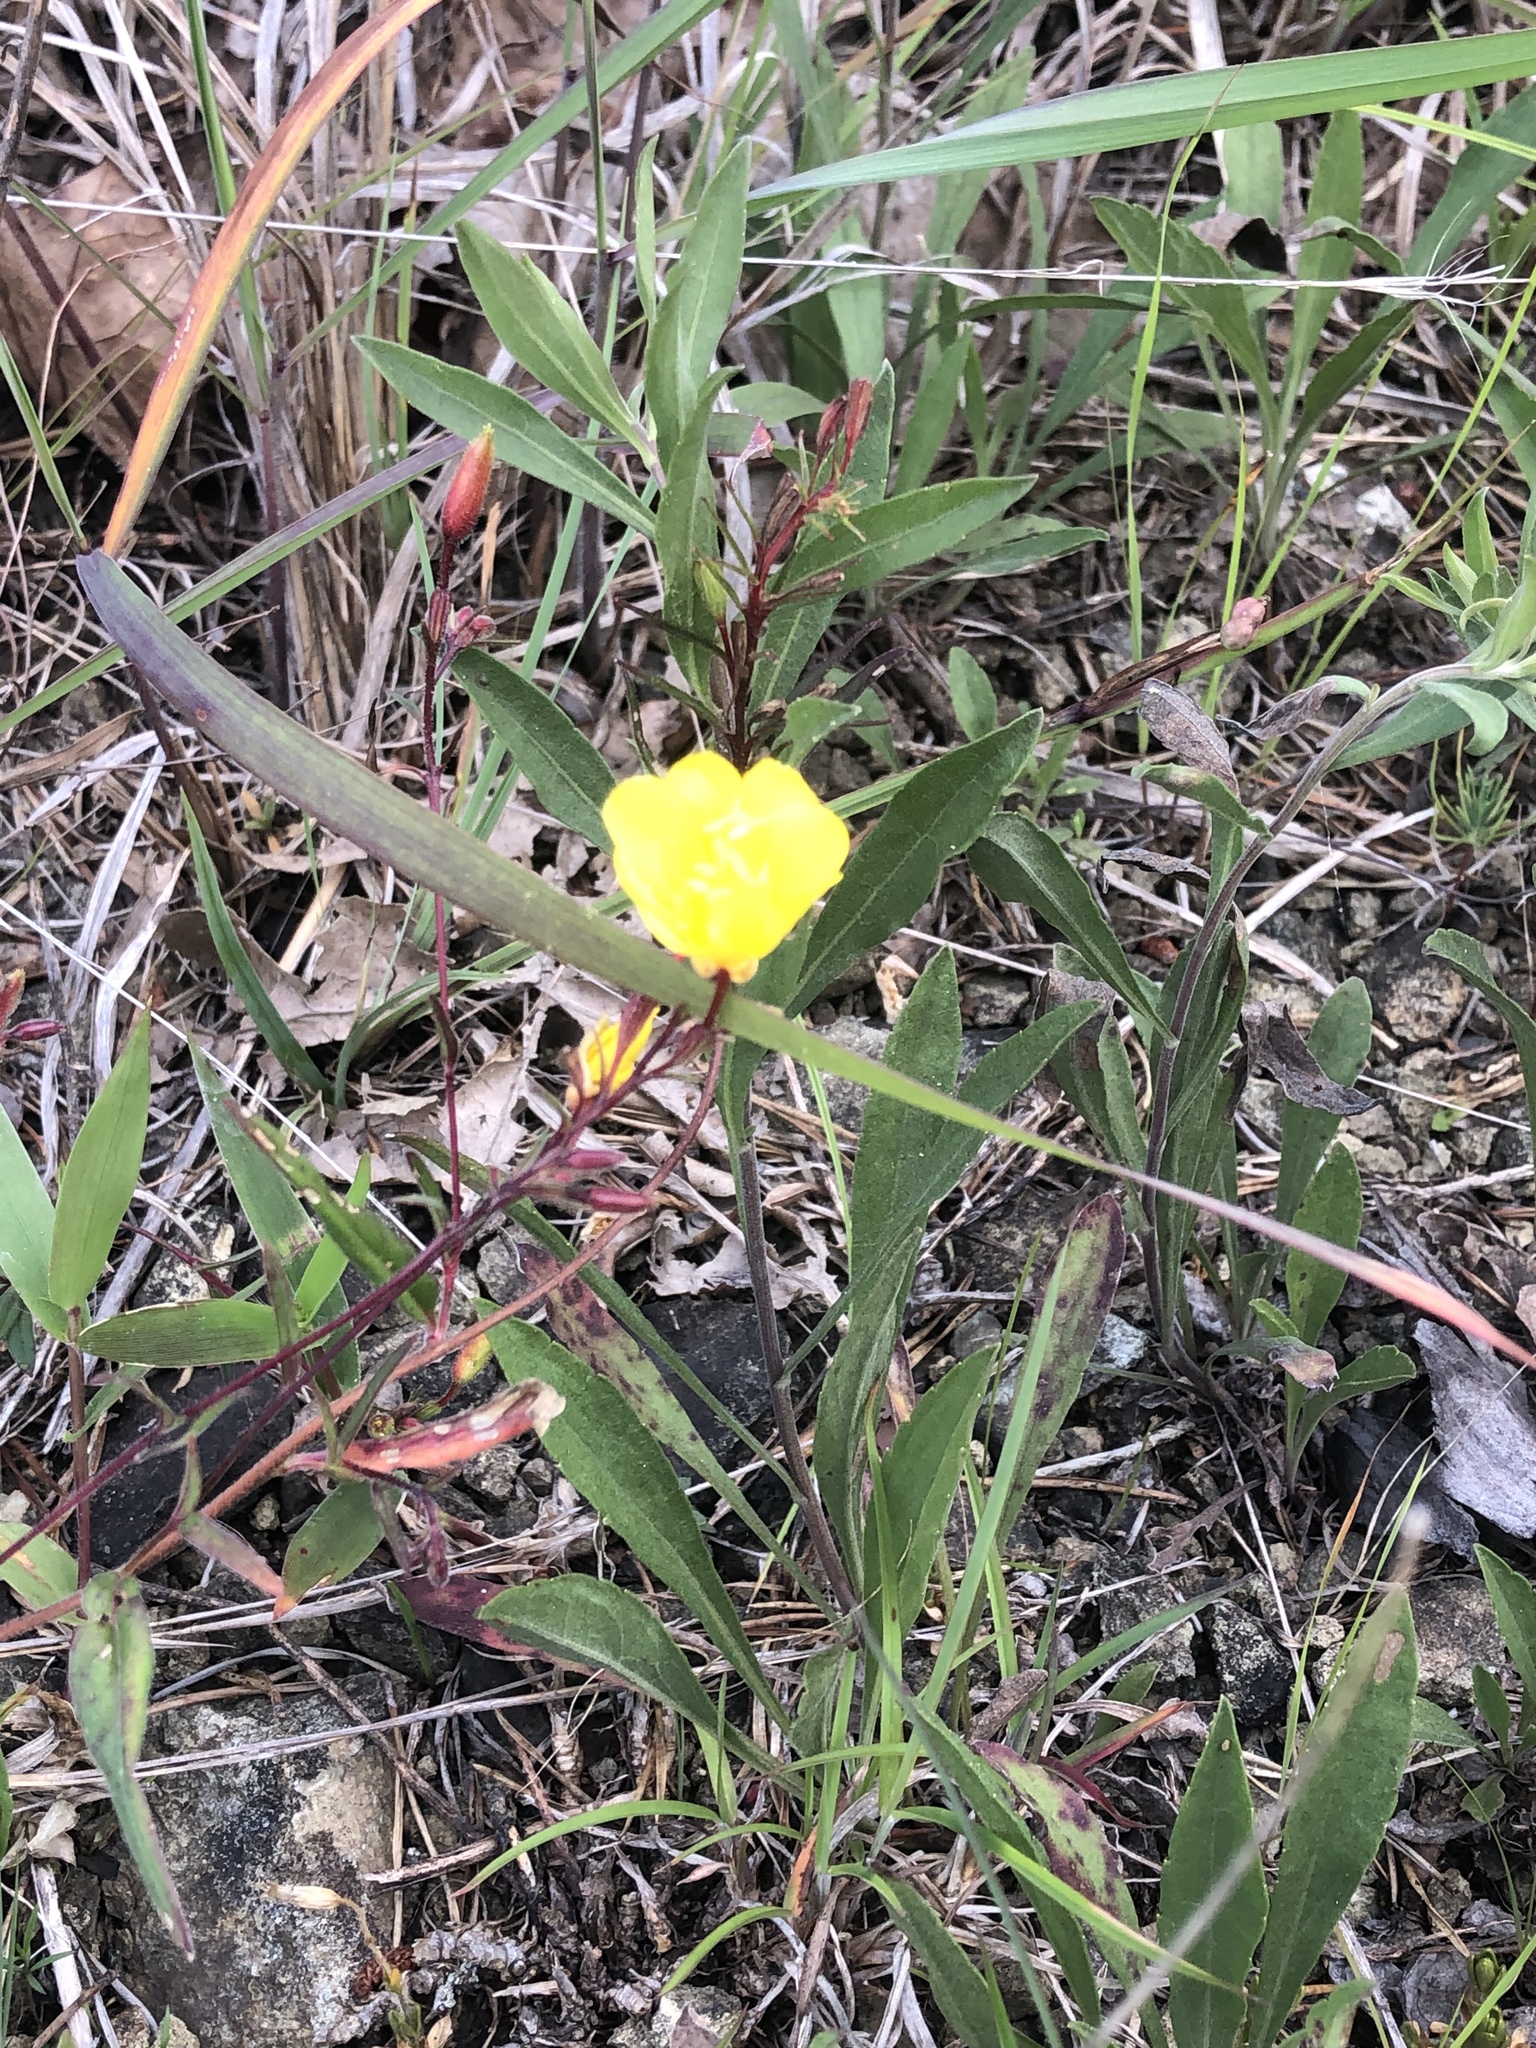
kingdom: Plantae
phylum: Tracheophyta
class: Magnoliopsida
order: Myrtales
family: Onagraceae
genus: Oenothera
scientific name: Oenothera tetragona
